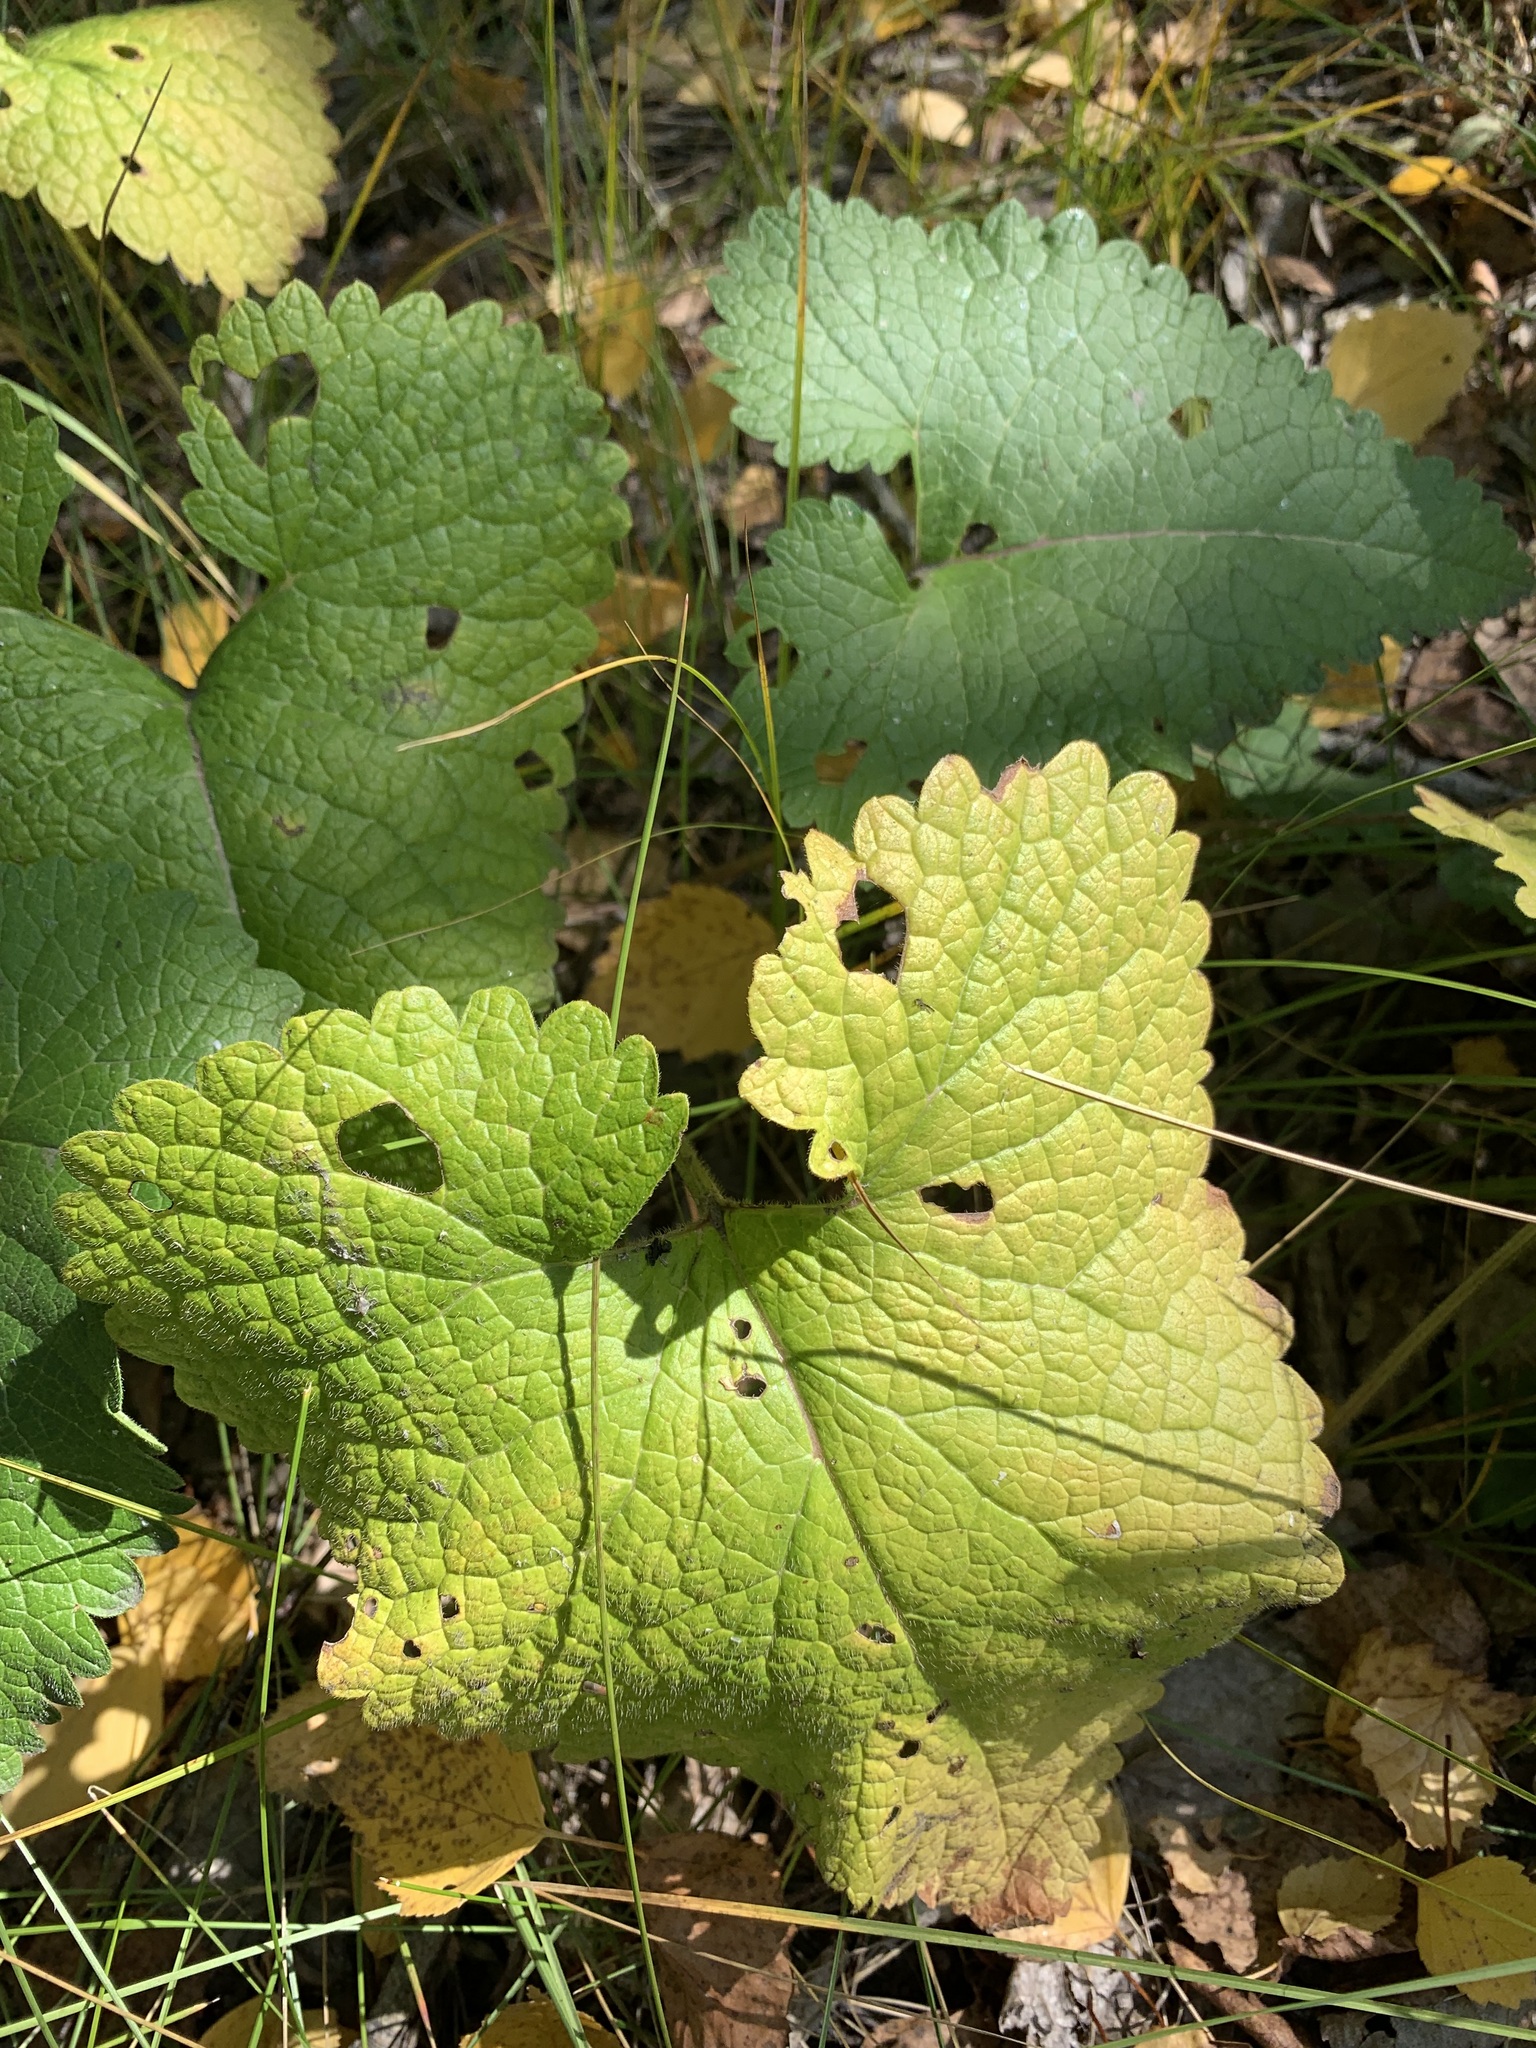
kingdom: Plantae
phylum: Tracheophyta
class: Magnoliopsida
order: Lamiales
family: Lamiaceae
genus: Phlomoides
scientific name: Phlomoides tuberosa
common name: Tuberous jerusalem sage
